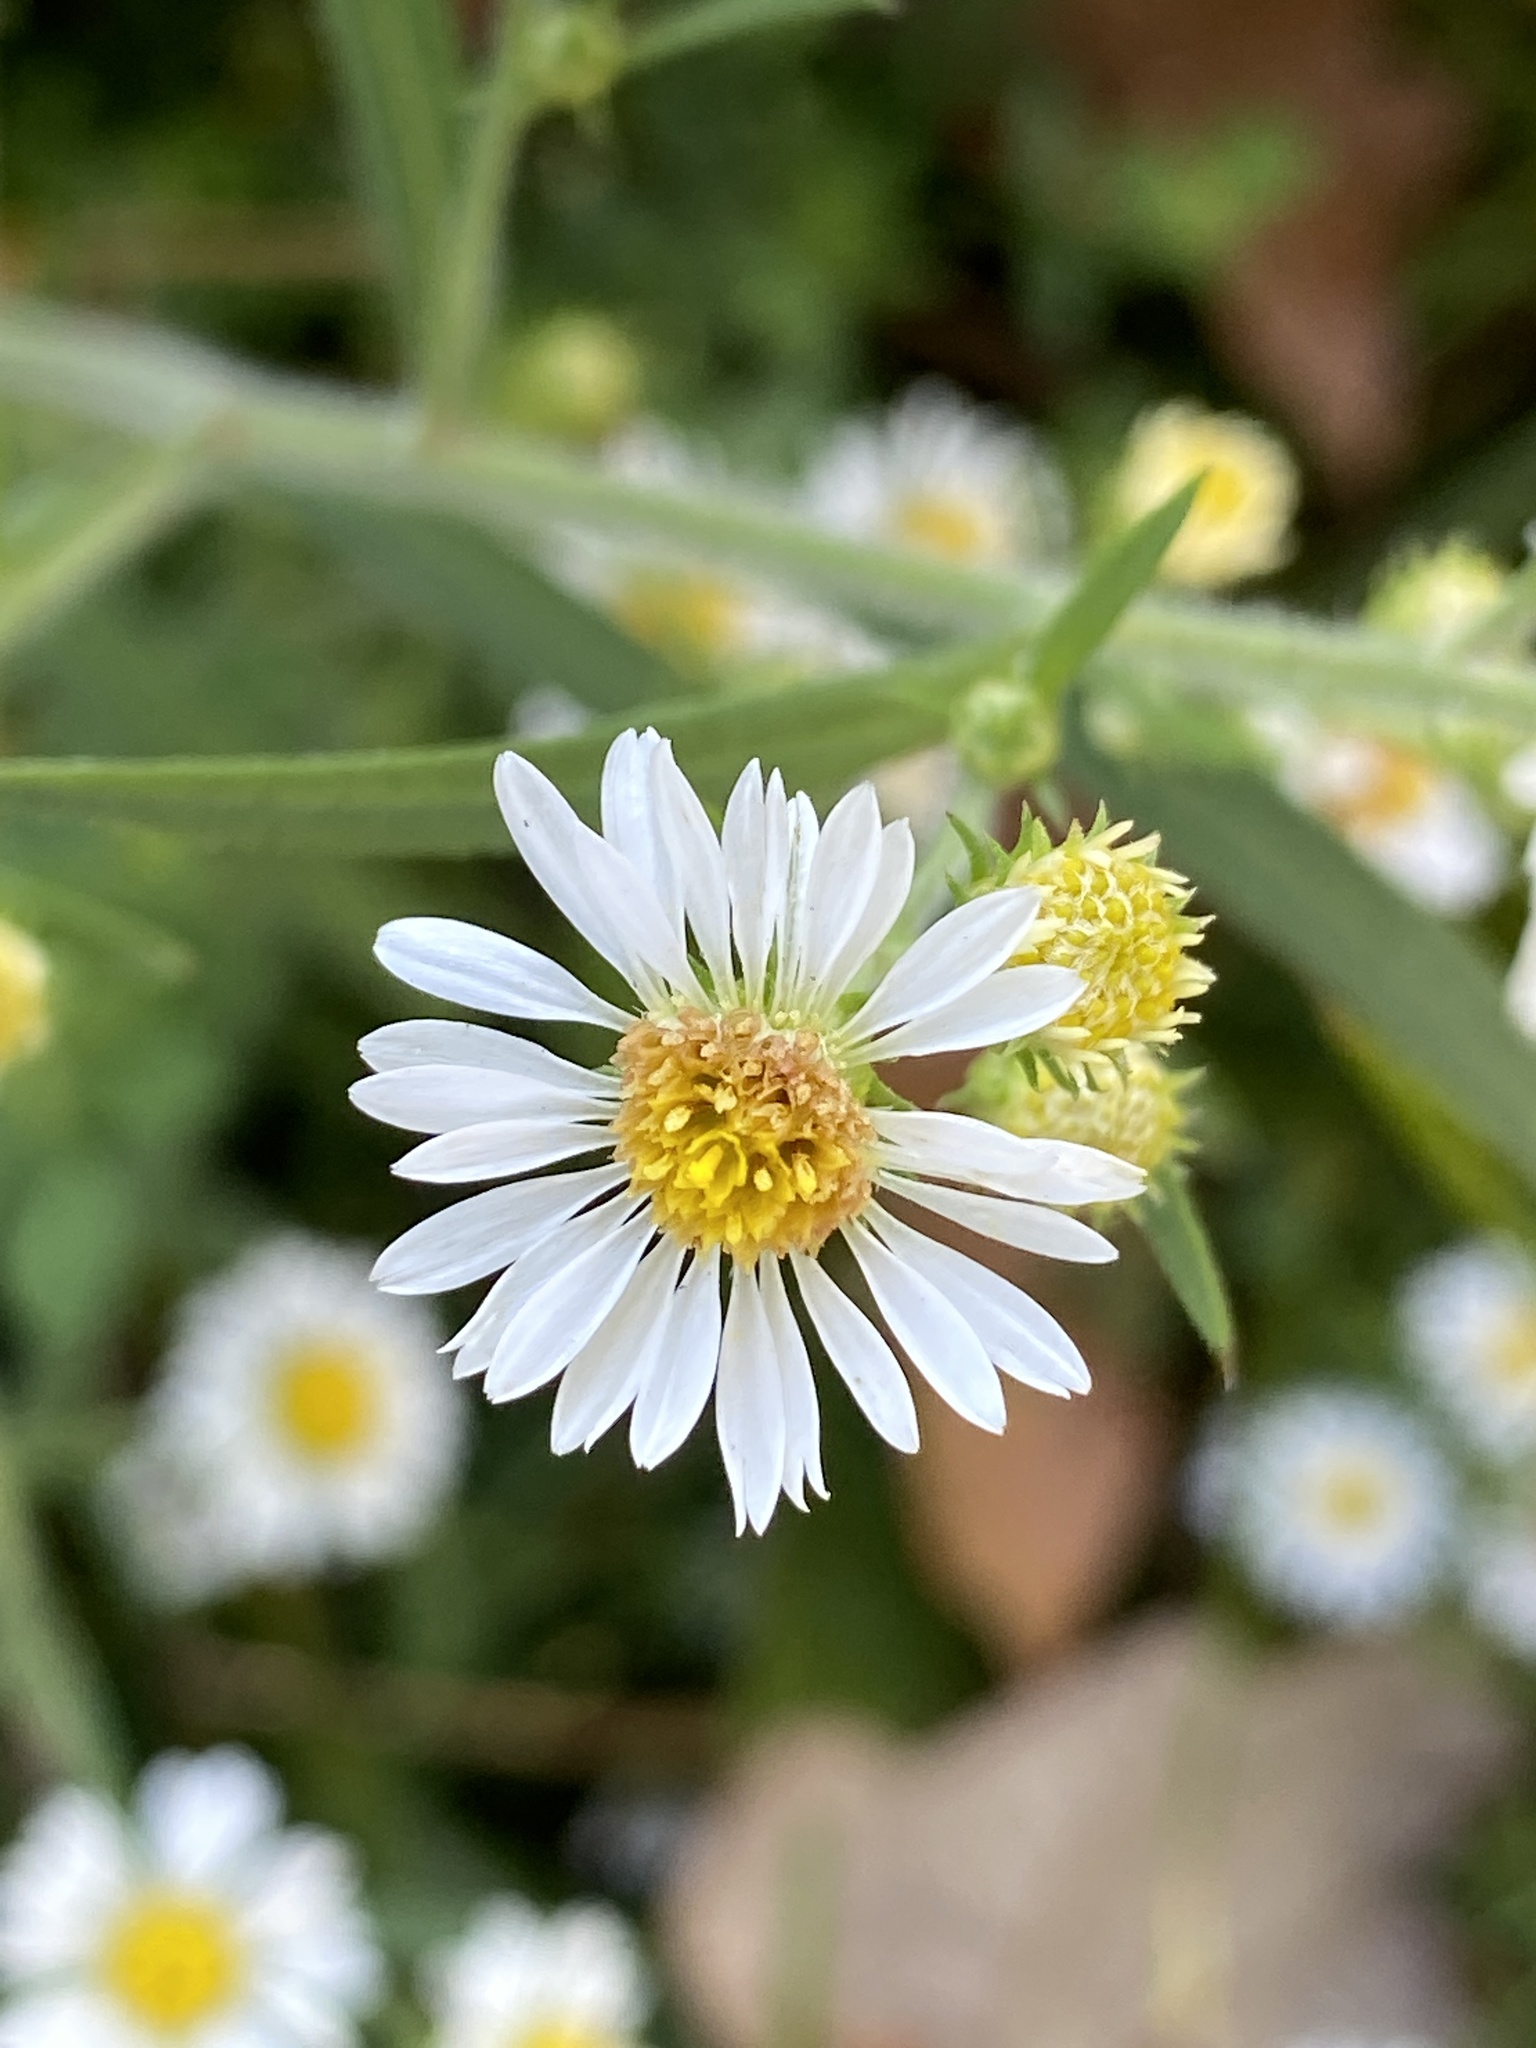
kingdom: Plantae
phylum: Tracheophyta
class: Magnoliopsida
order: Asterales
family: Asteraceae
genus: Symphyotrichum
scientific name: Symphyotrichum pilosum
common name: Awl aster
